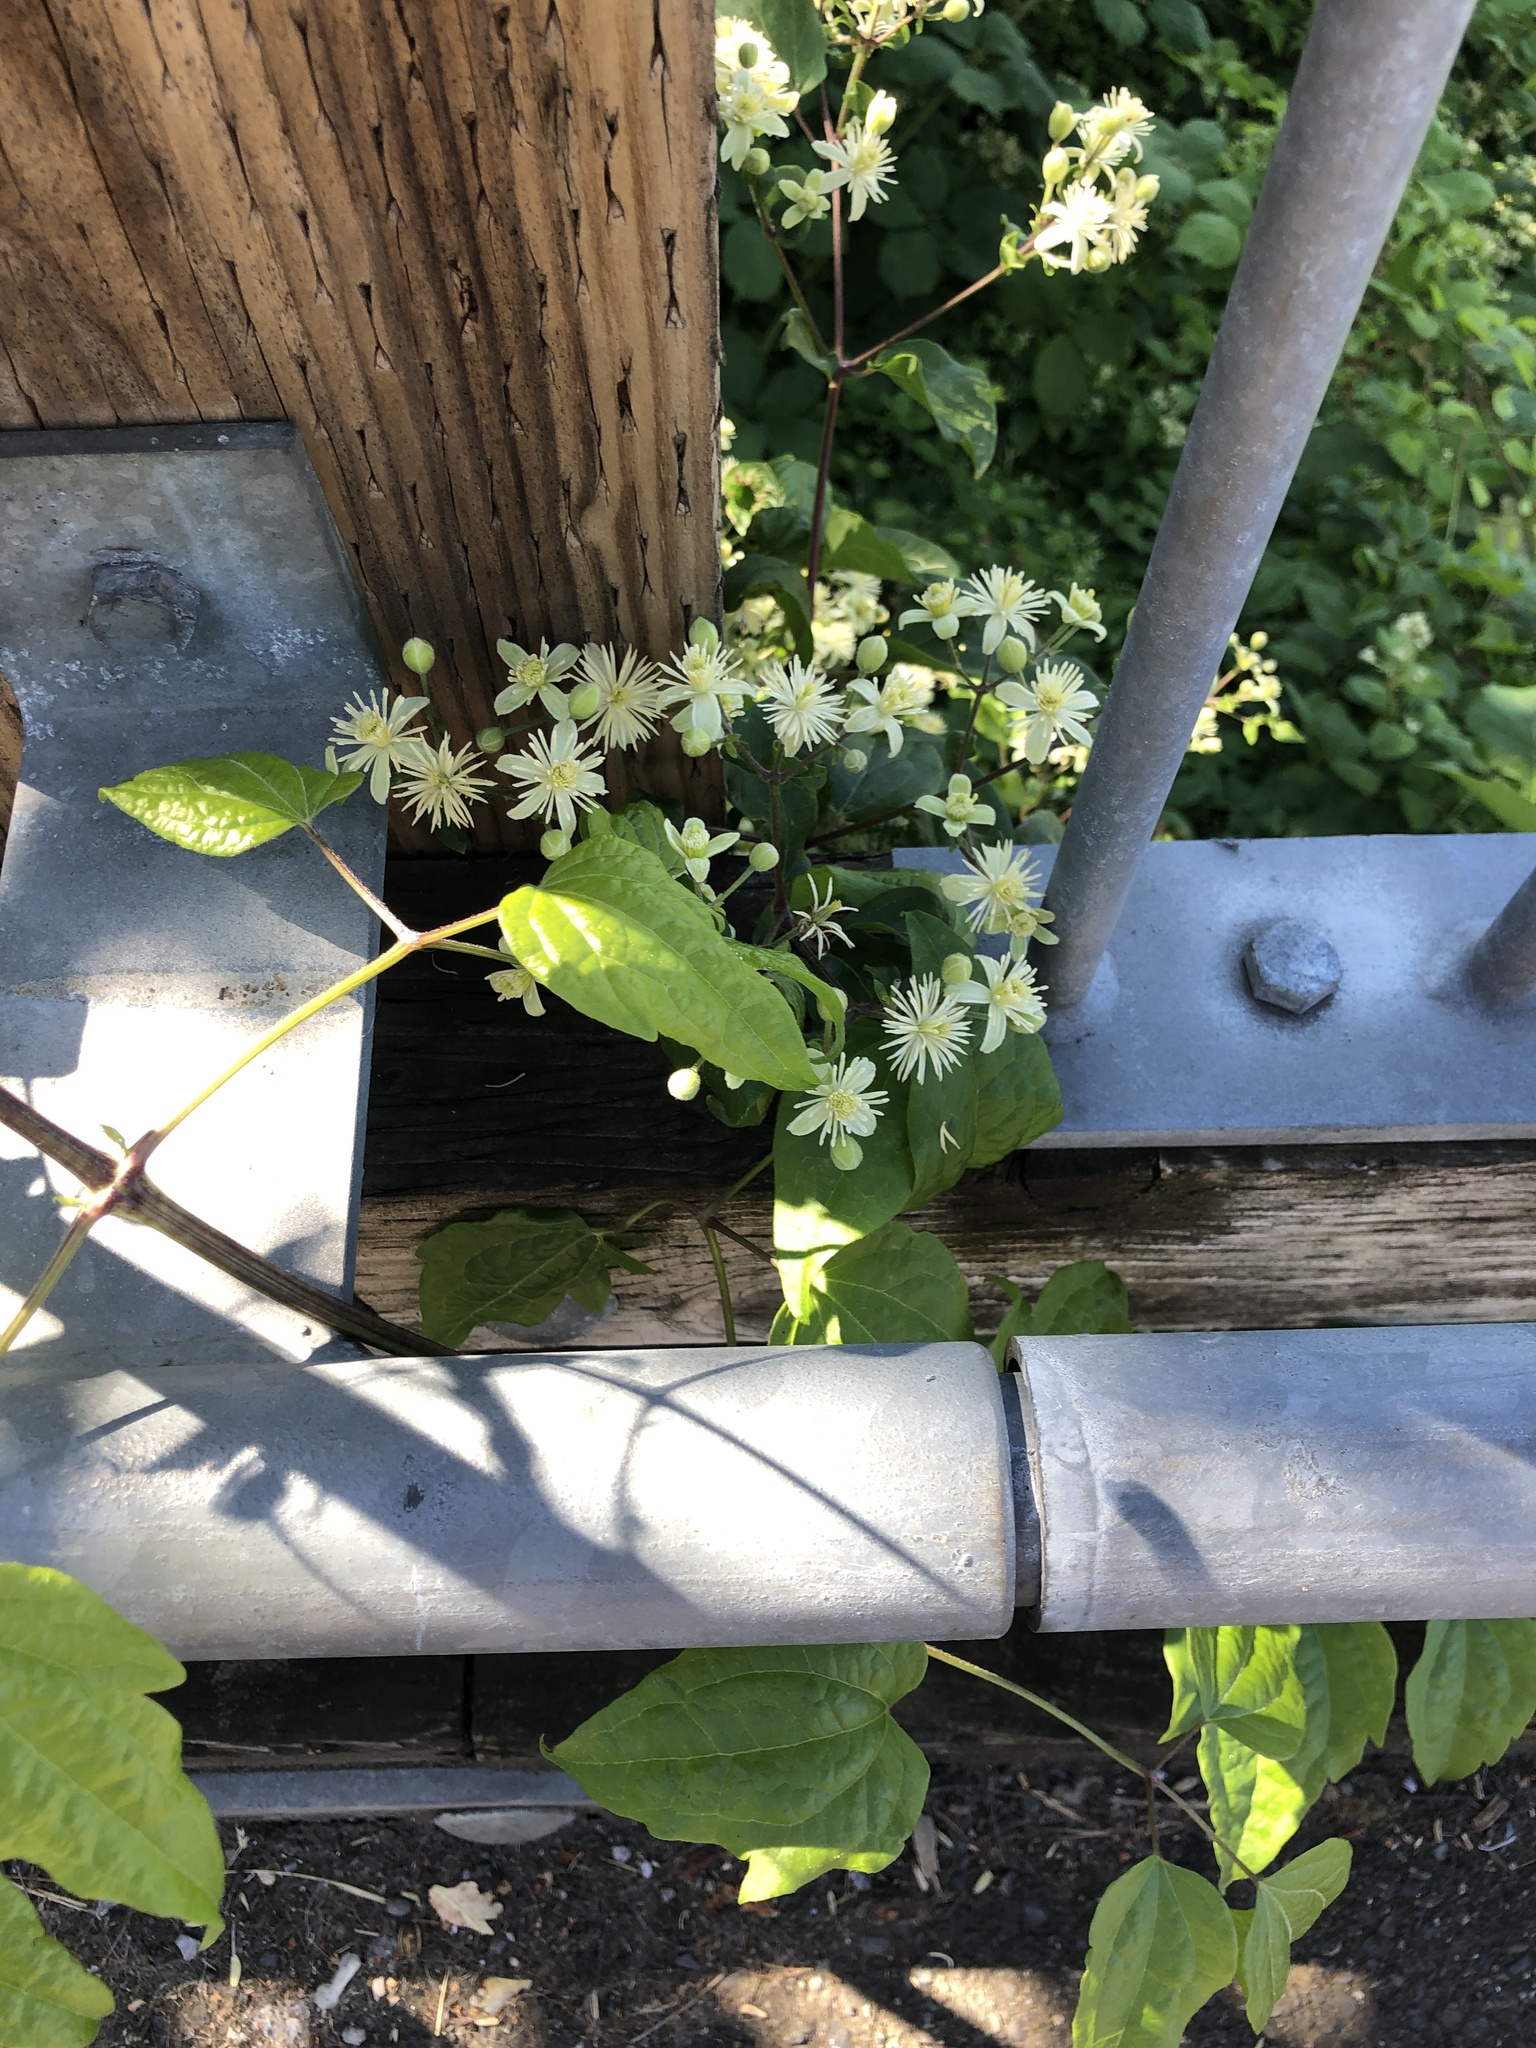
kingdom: Plantae
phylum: Tracheophyta
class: Magnoliopsida
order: Ranunculales
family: Ranunculaceae
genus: Clematis
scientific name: Clematis vitalba
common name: Evergreen clematis
